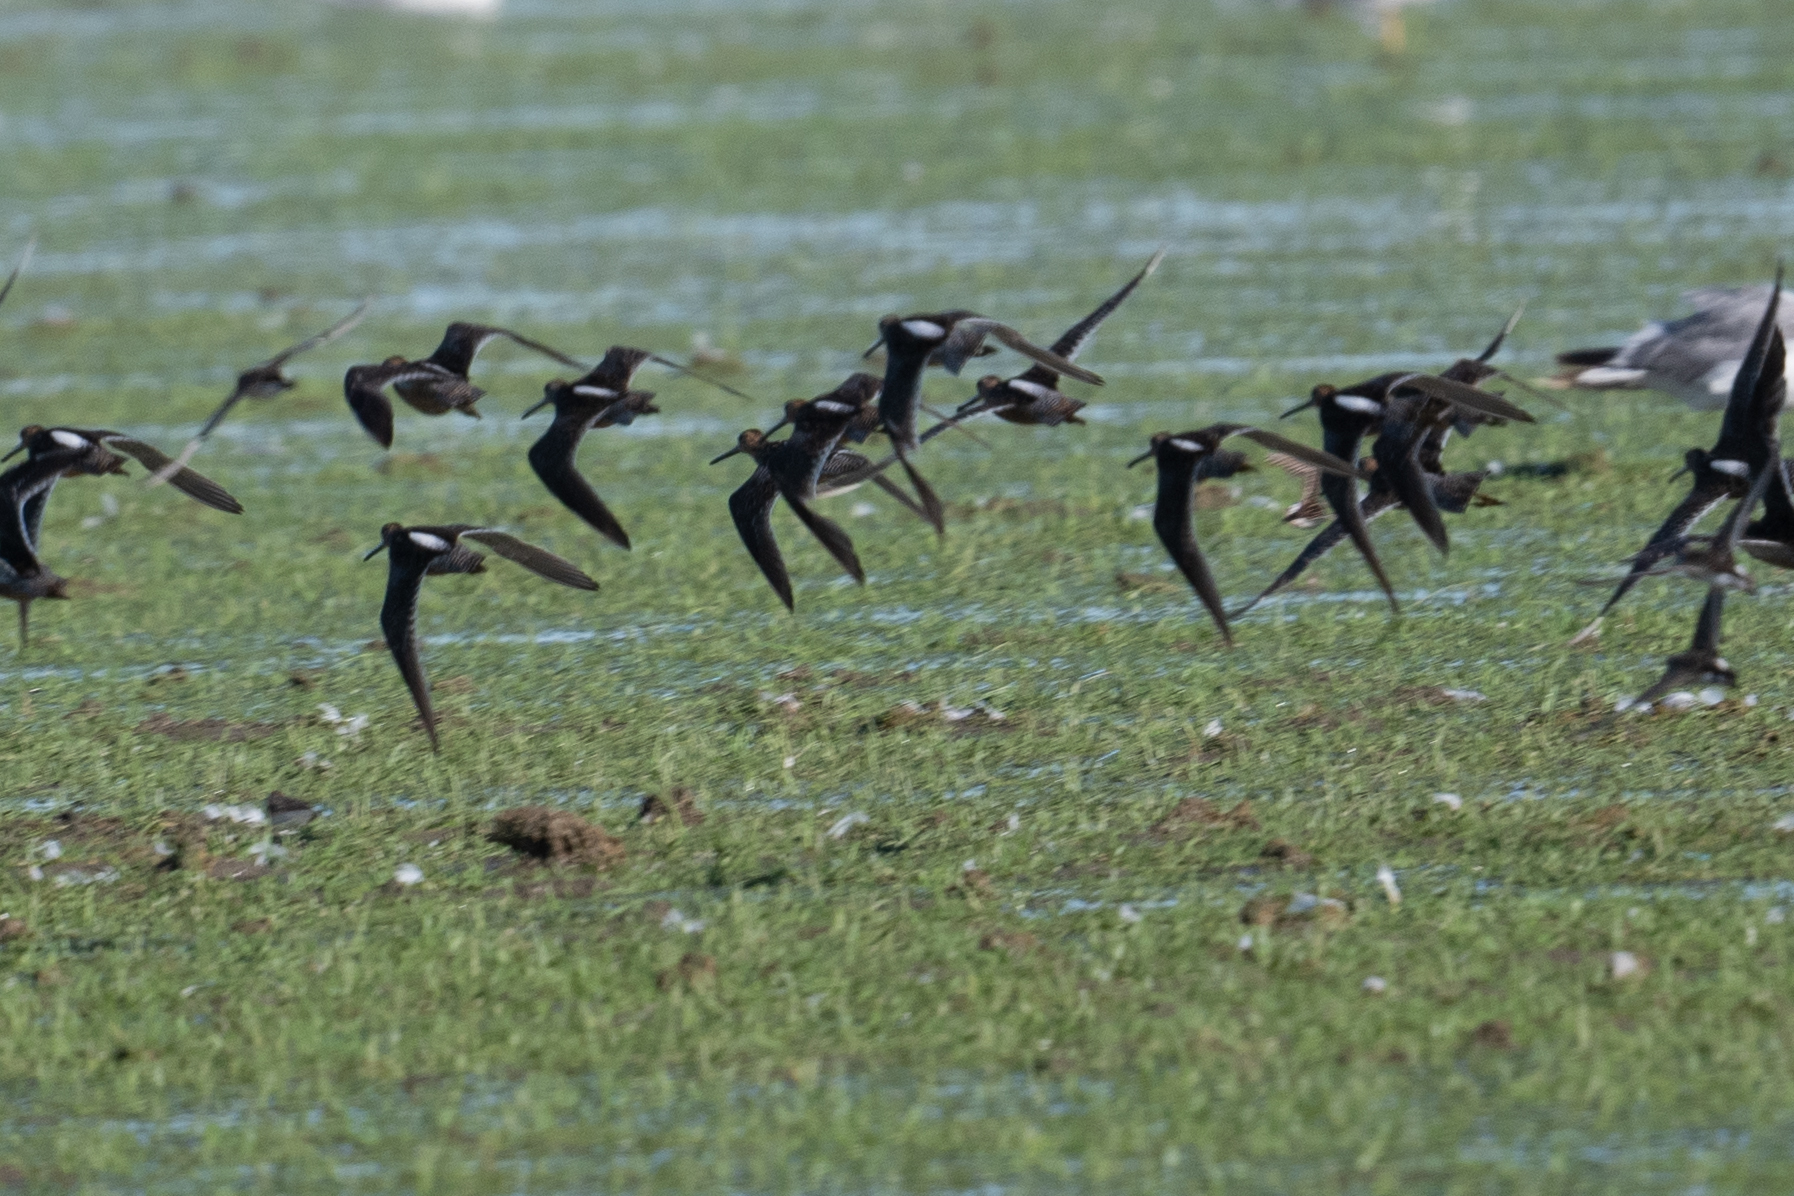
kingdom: Animalia
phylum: Chordata
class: Aves
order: Charadriiformes
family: Scolopacidae
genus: Limnodromus
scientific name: Limnodromus scolopaceus
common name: Long-billed dowitcher
